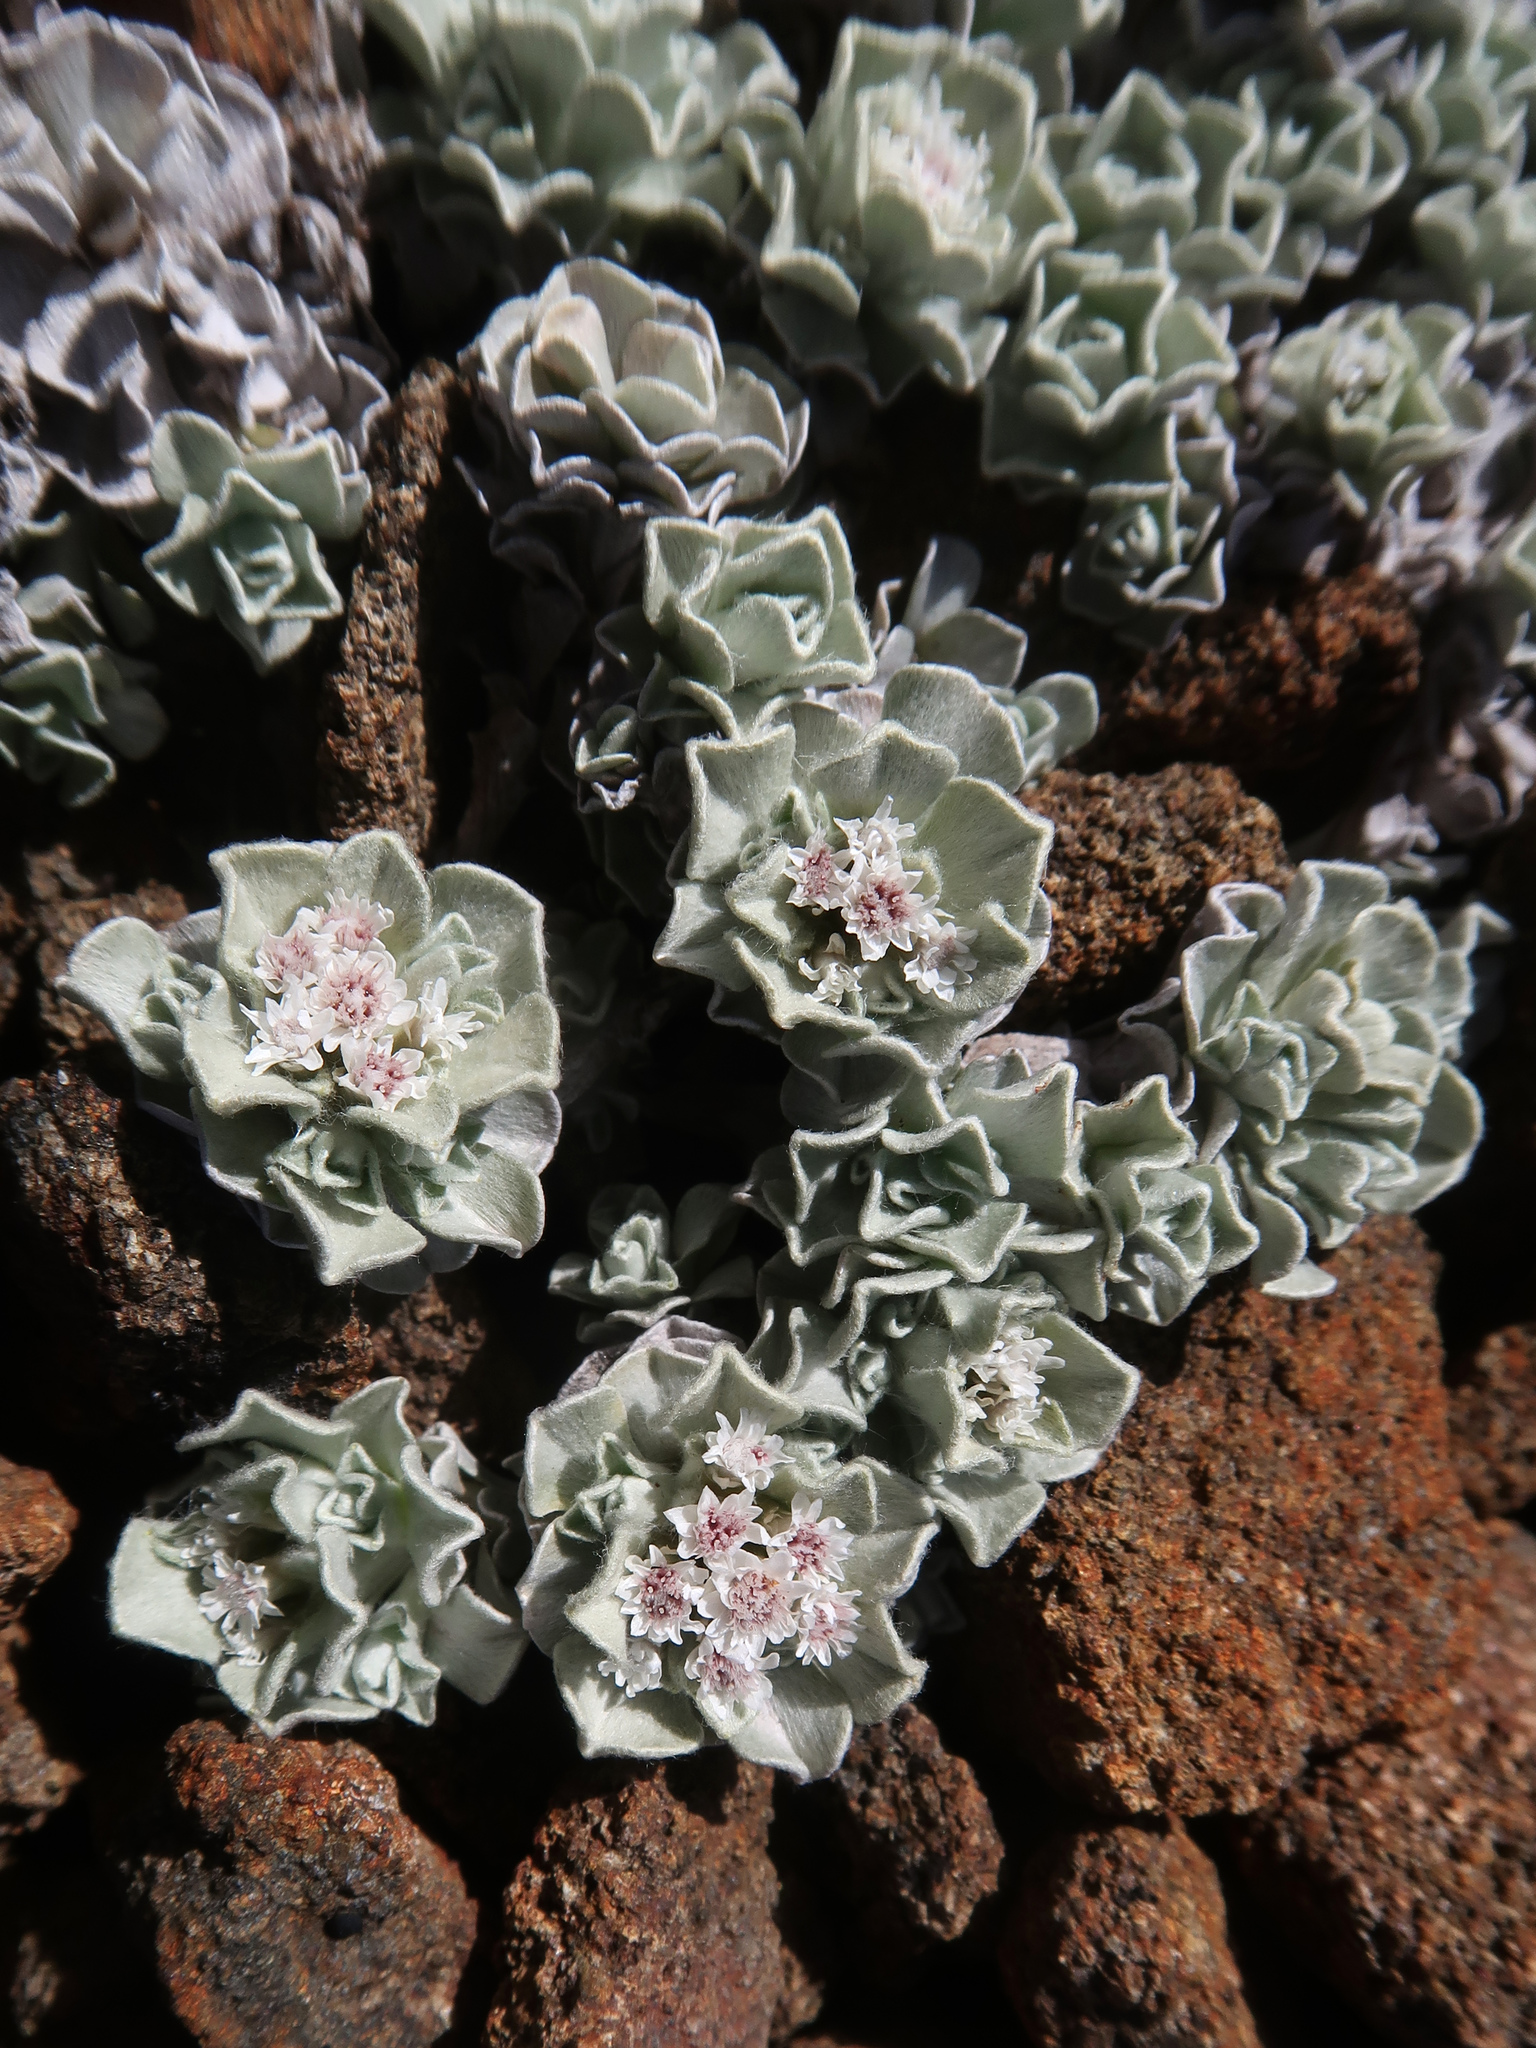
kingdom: Plantae
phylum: Tracheophyta
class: Magnoliopsida
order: Asterales
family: Asteraceae
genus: Ewartia
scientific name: Ewartia catipes
